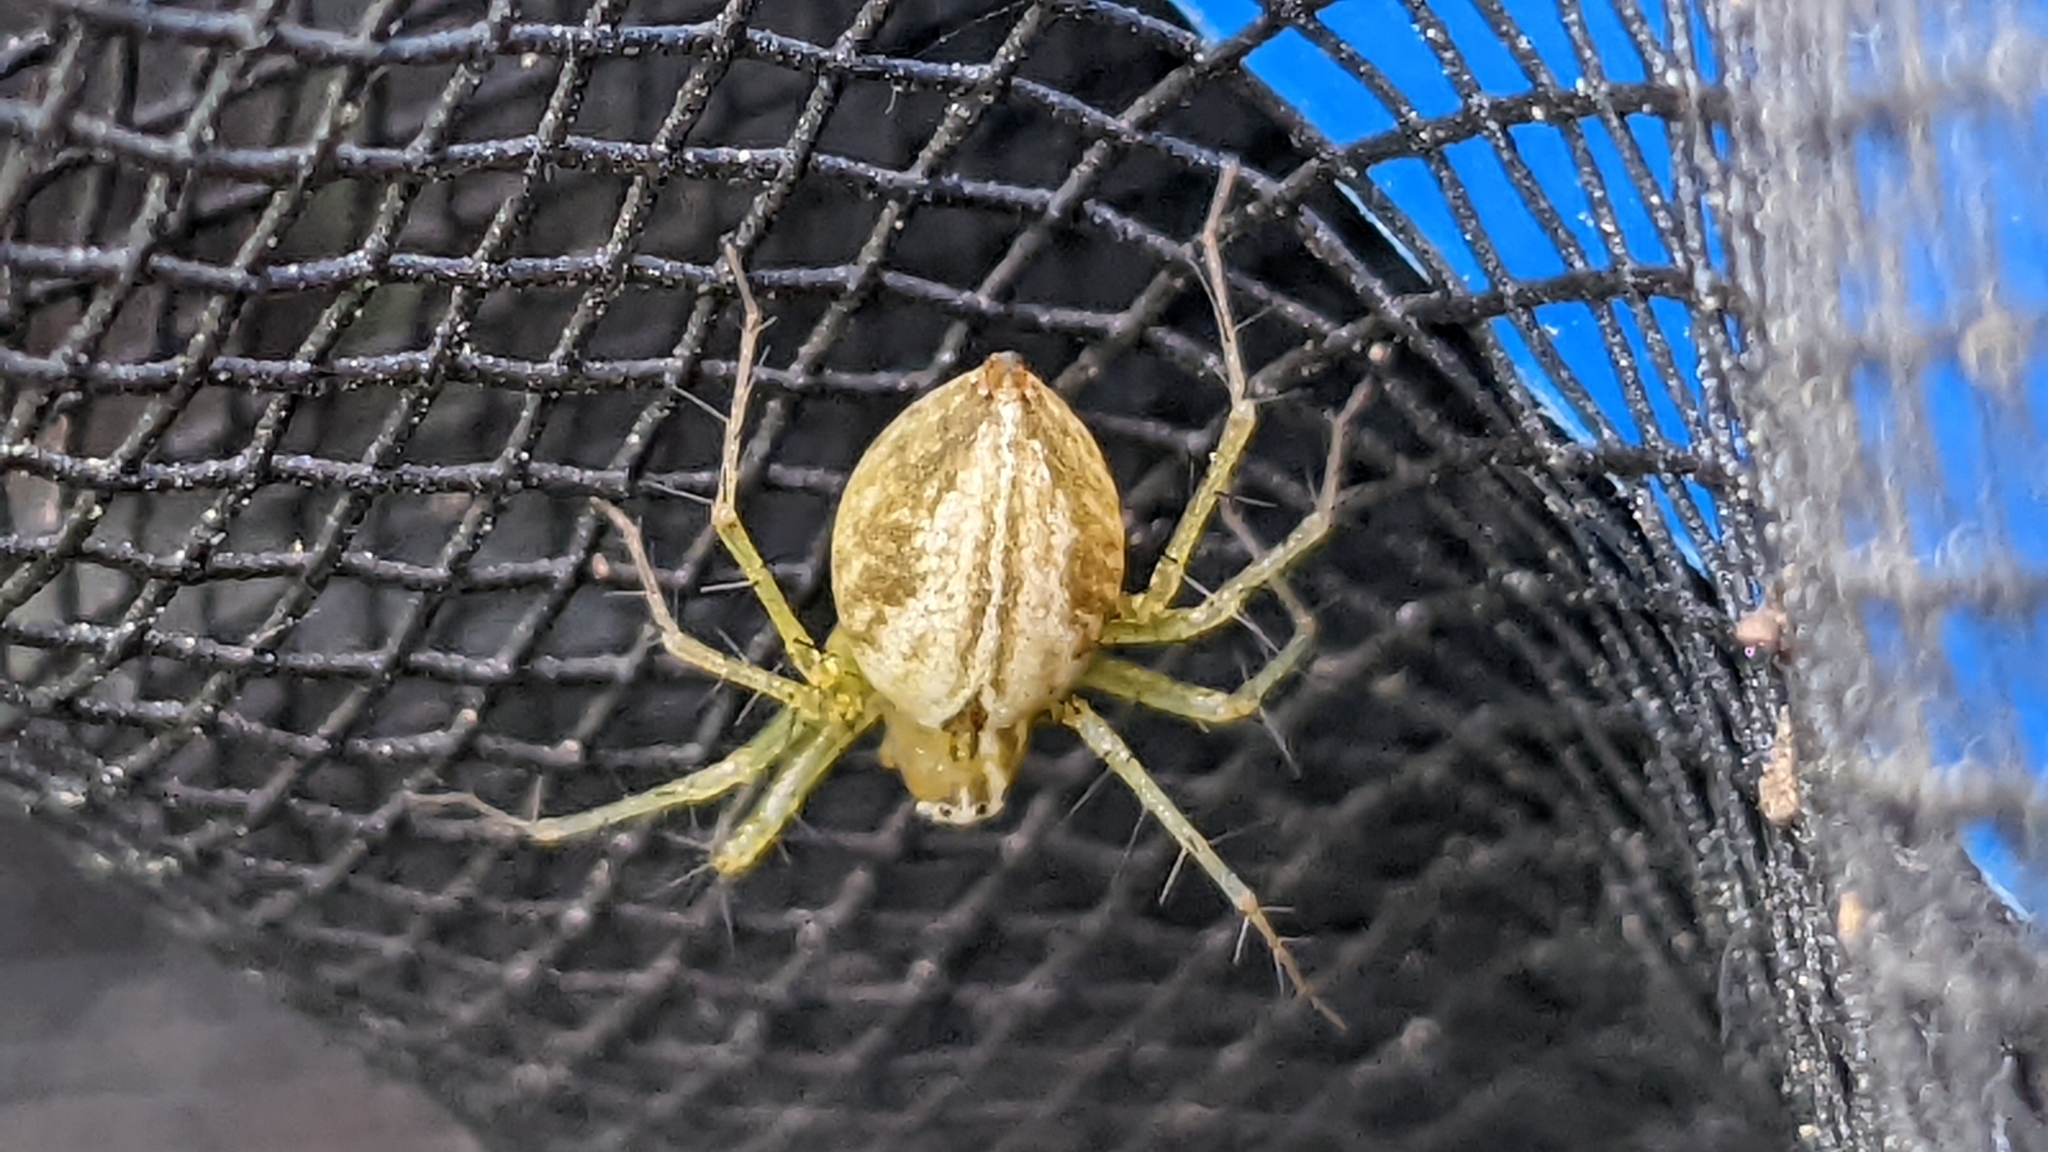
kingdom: Animalia
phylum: Arthropoda
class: Arachnida
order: Araneae
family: Oxyopidae
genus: Oxyopes
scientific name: Oxyopes salticus
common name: Lynx spiders
